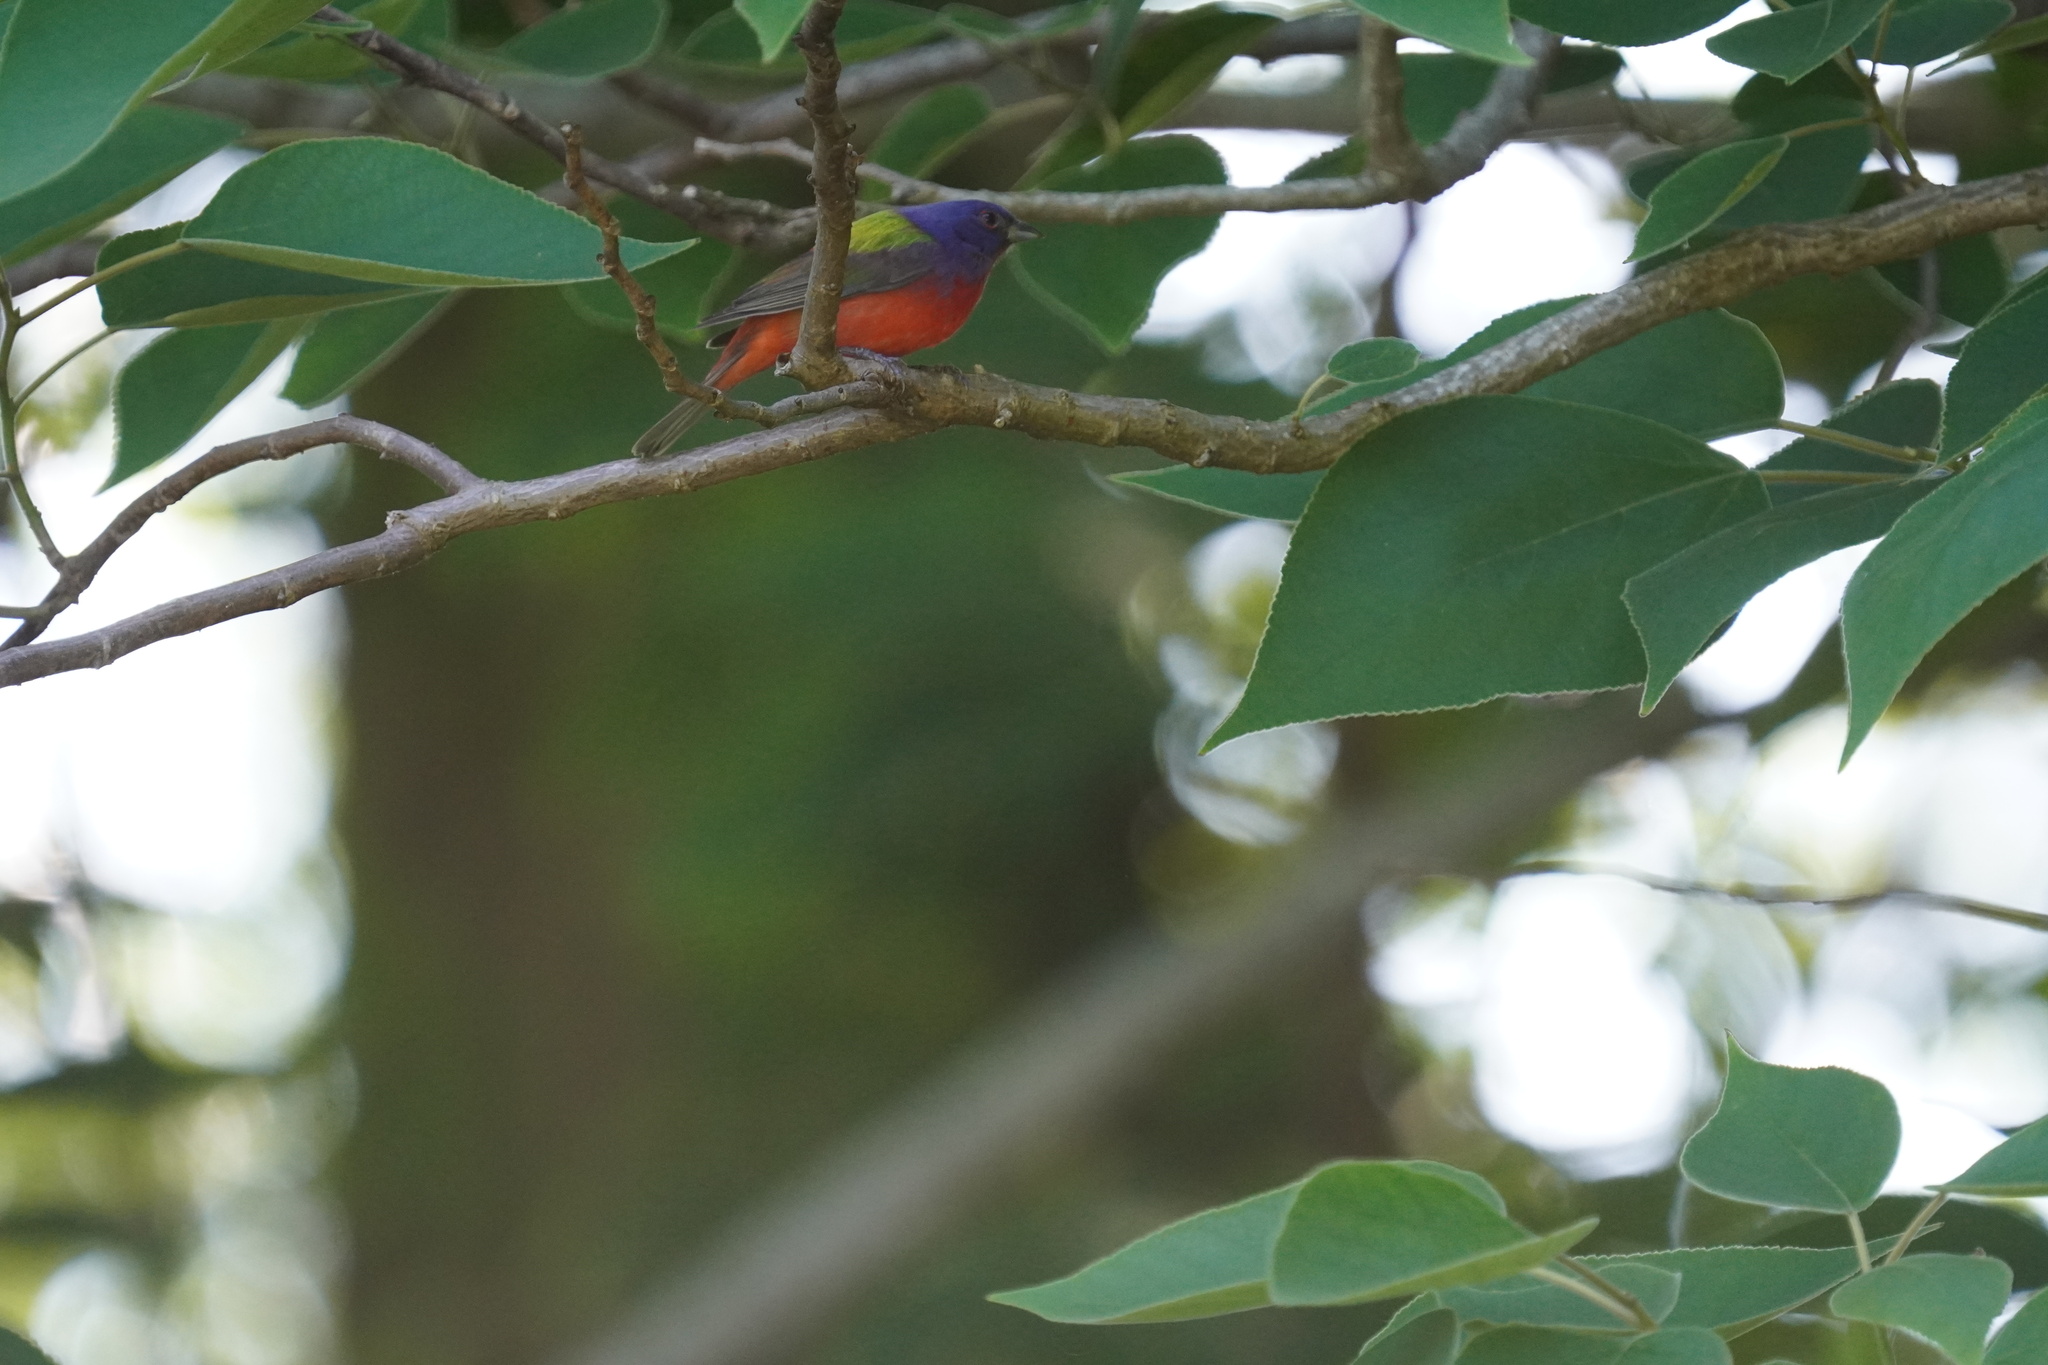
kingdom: Animalia
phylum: Chordata
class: Aves
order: Passeriformes
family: Cardinalidae
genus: Passerina
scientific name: Passerina ciris
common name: Painted bunting
